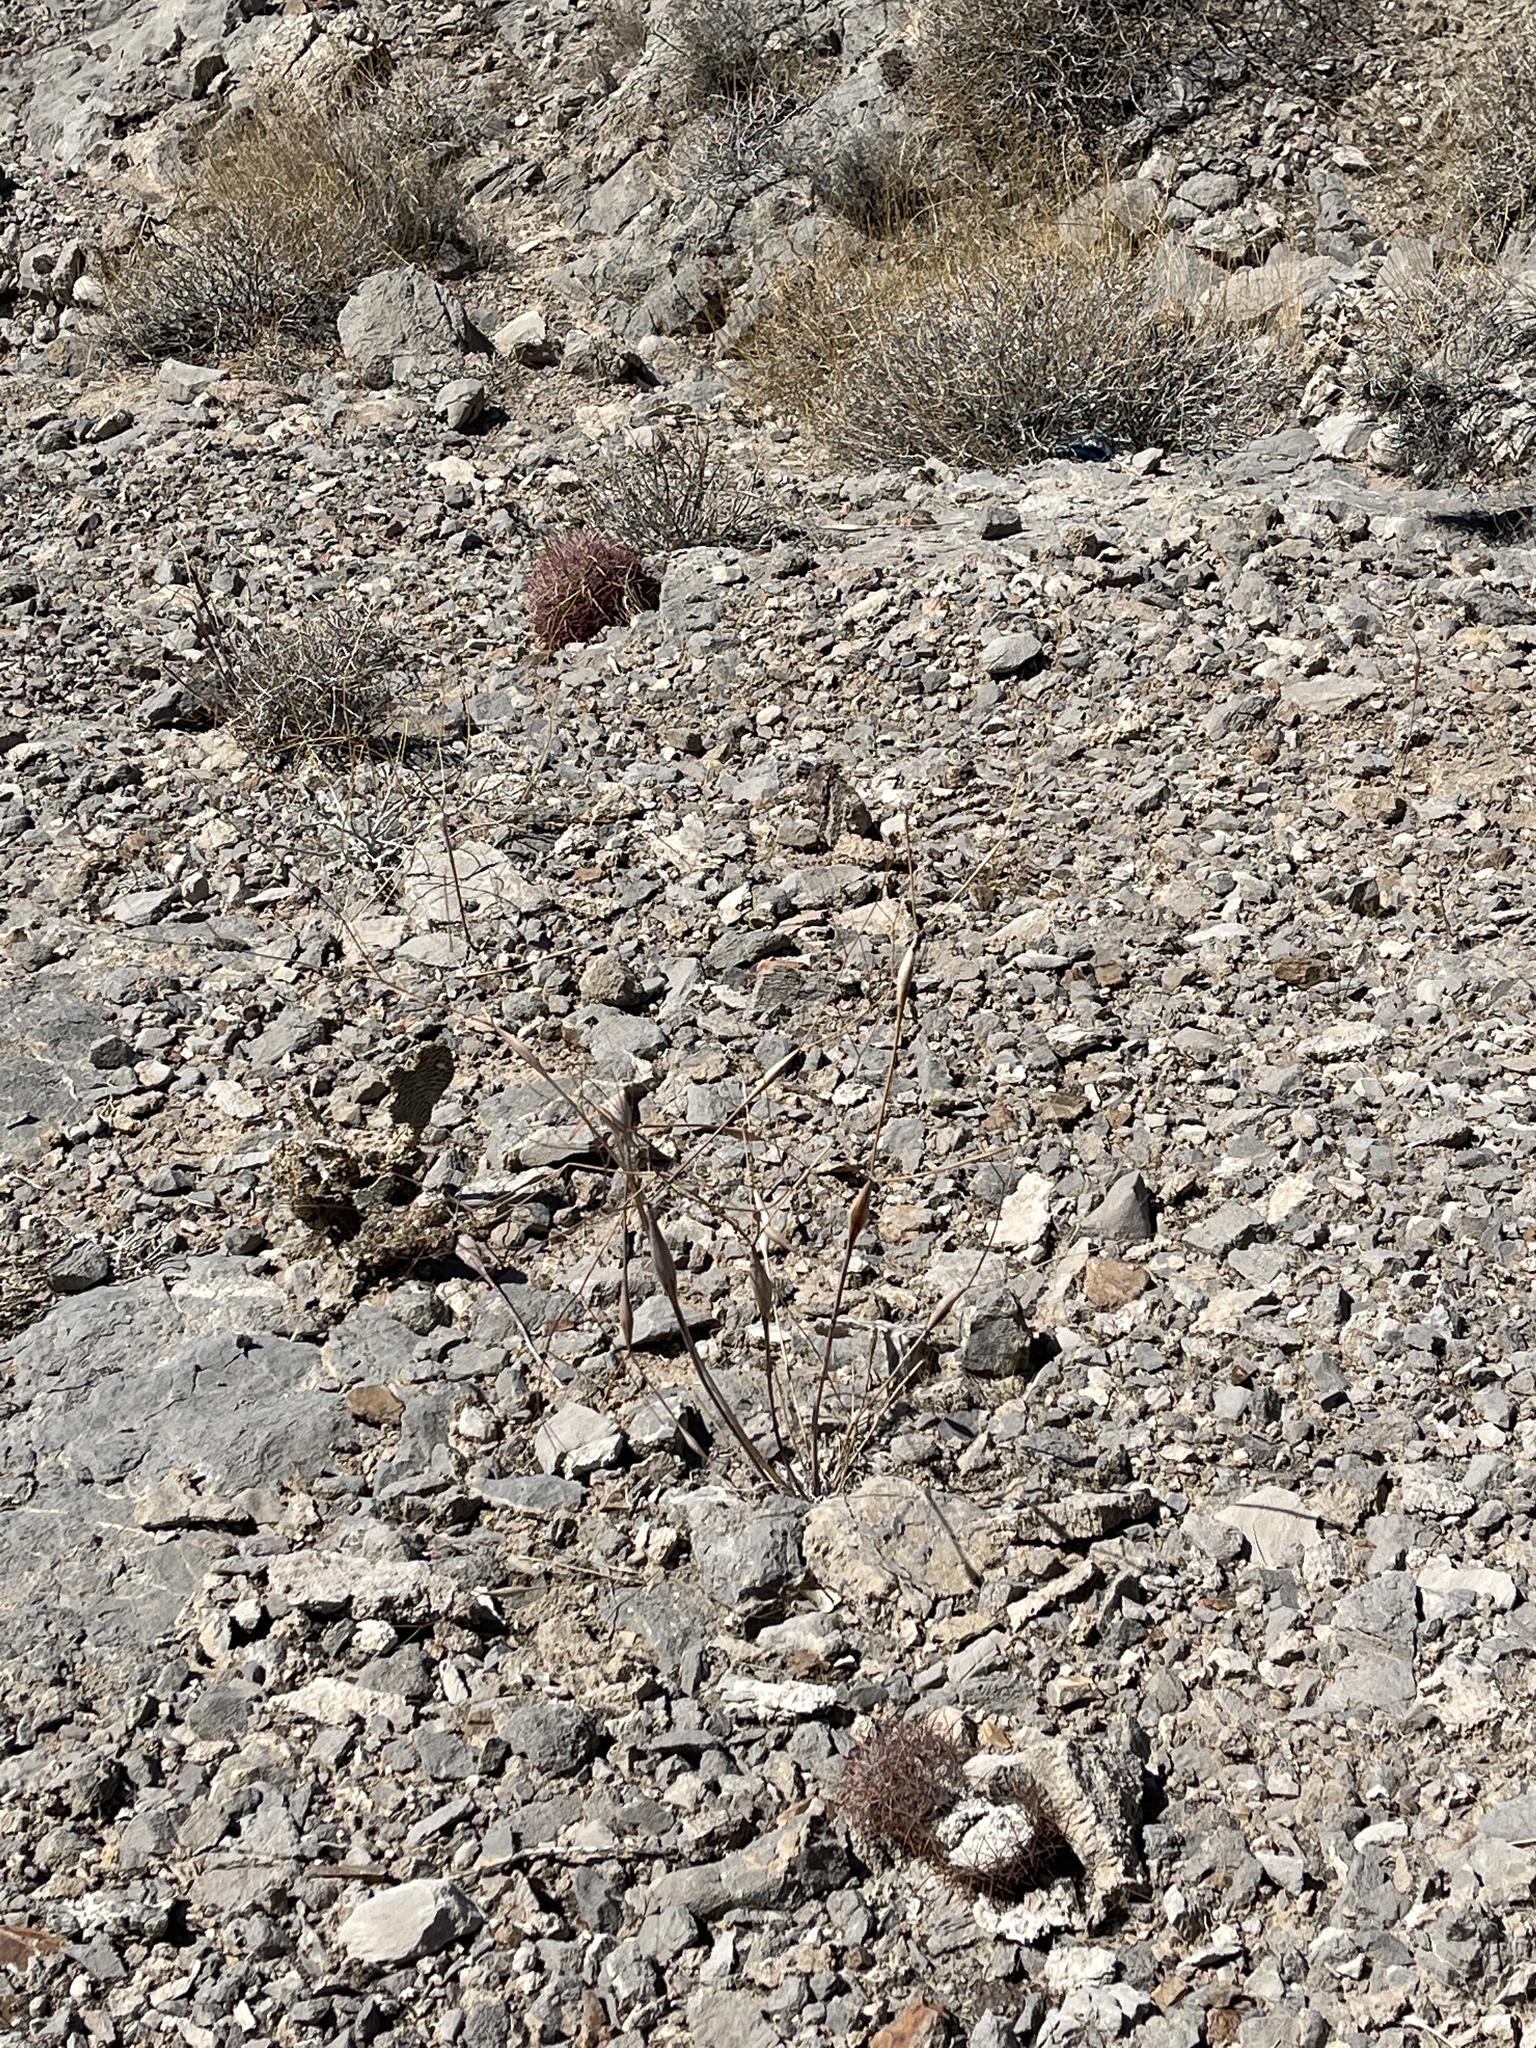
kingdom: Plantae
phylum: Tracheophyta
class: Magnoliopsida
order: Caryophyllales
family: Polygonaceae
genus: Eriogonum
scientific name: Eriogonum inflatum
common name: Desert trumpet
